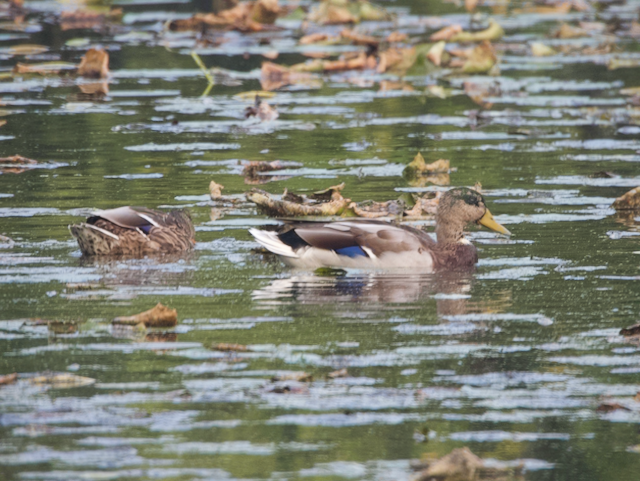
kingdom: Animalia
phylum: Chordata
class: Aves
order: Anseriformes
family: Anatidae
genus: Anas
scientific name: Anas platyrhynchos
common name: Mallard
